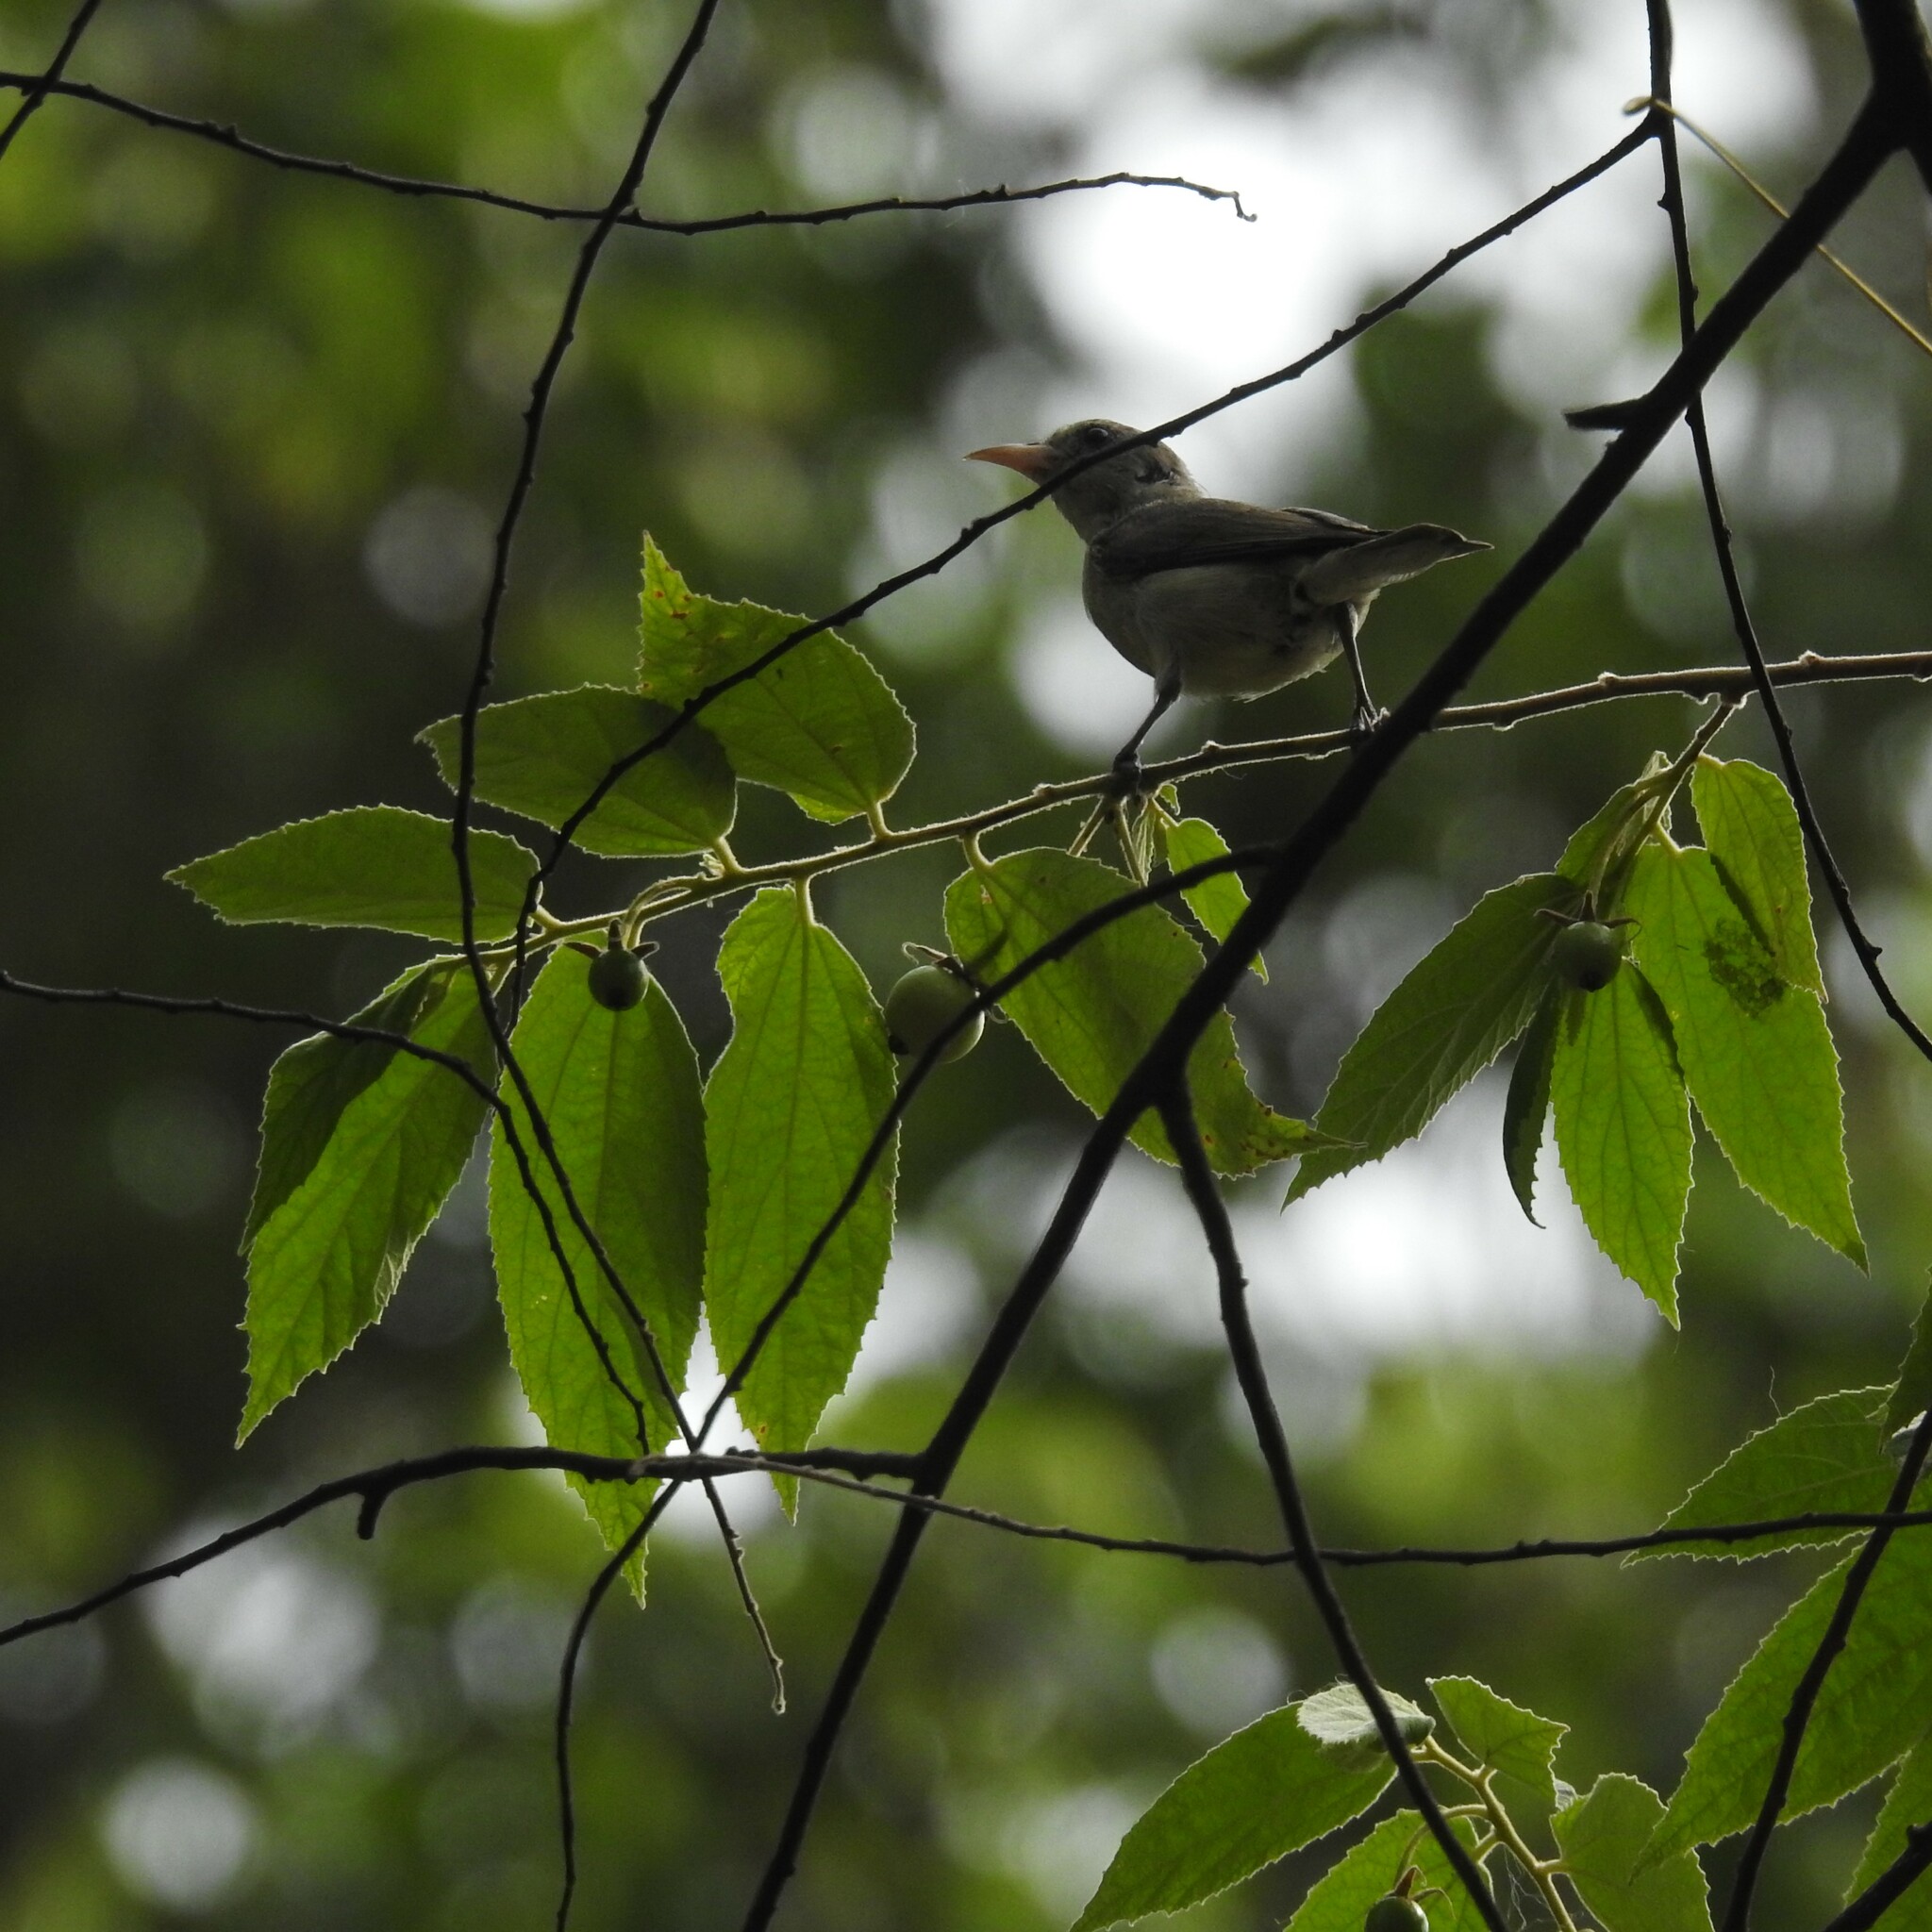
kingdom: Animalia
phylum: Chordata
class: Aves
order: Passeriformes
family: Dicaeidae
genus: Dicaeum
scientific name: Dicaeum erythrorhynchos
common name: Pale-billed flowerpecker
